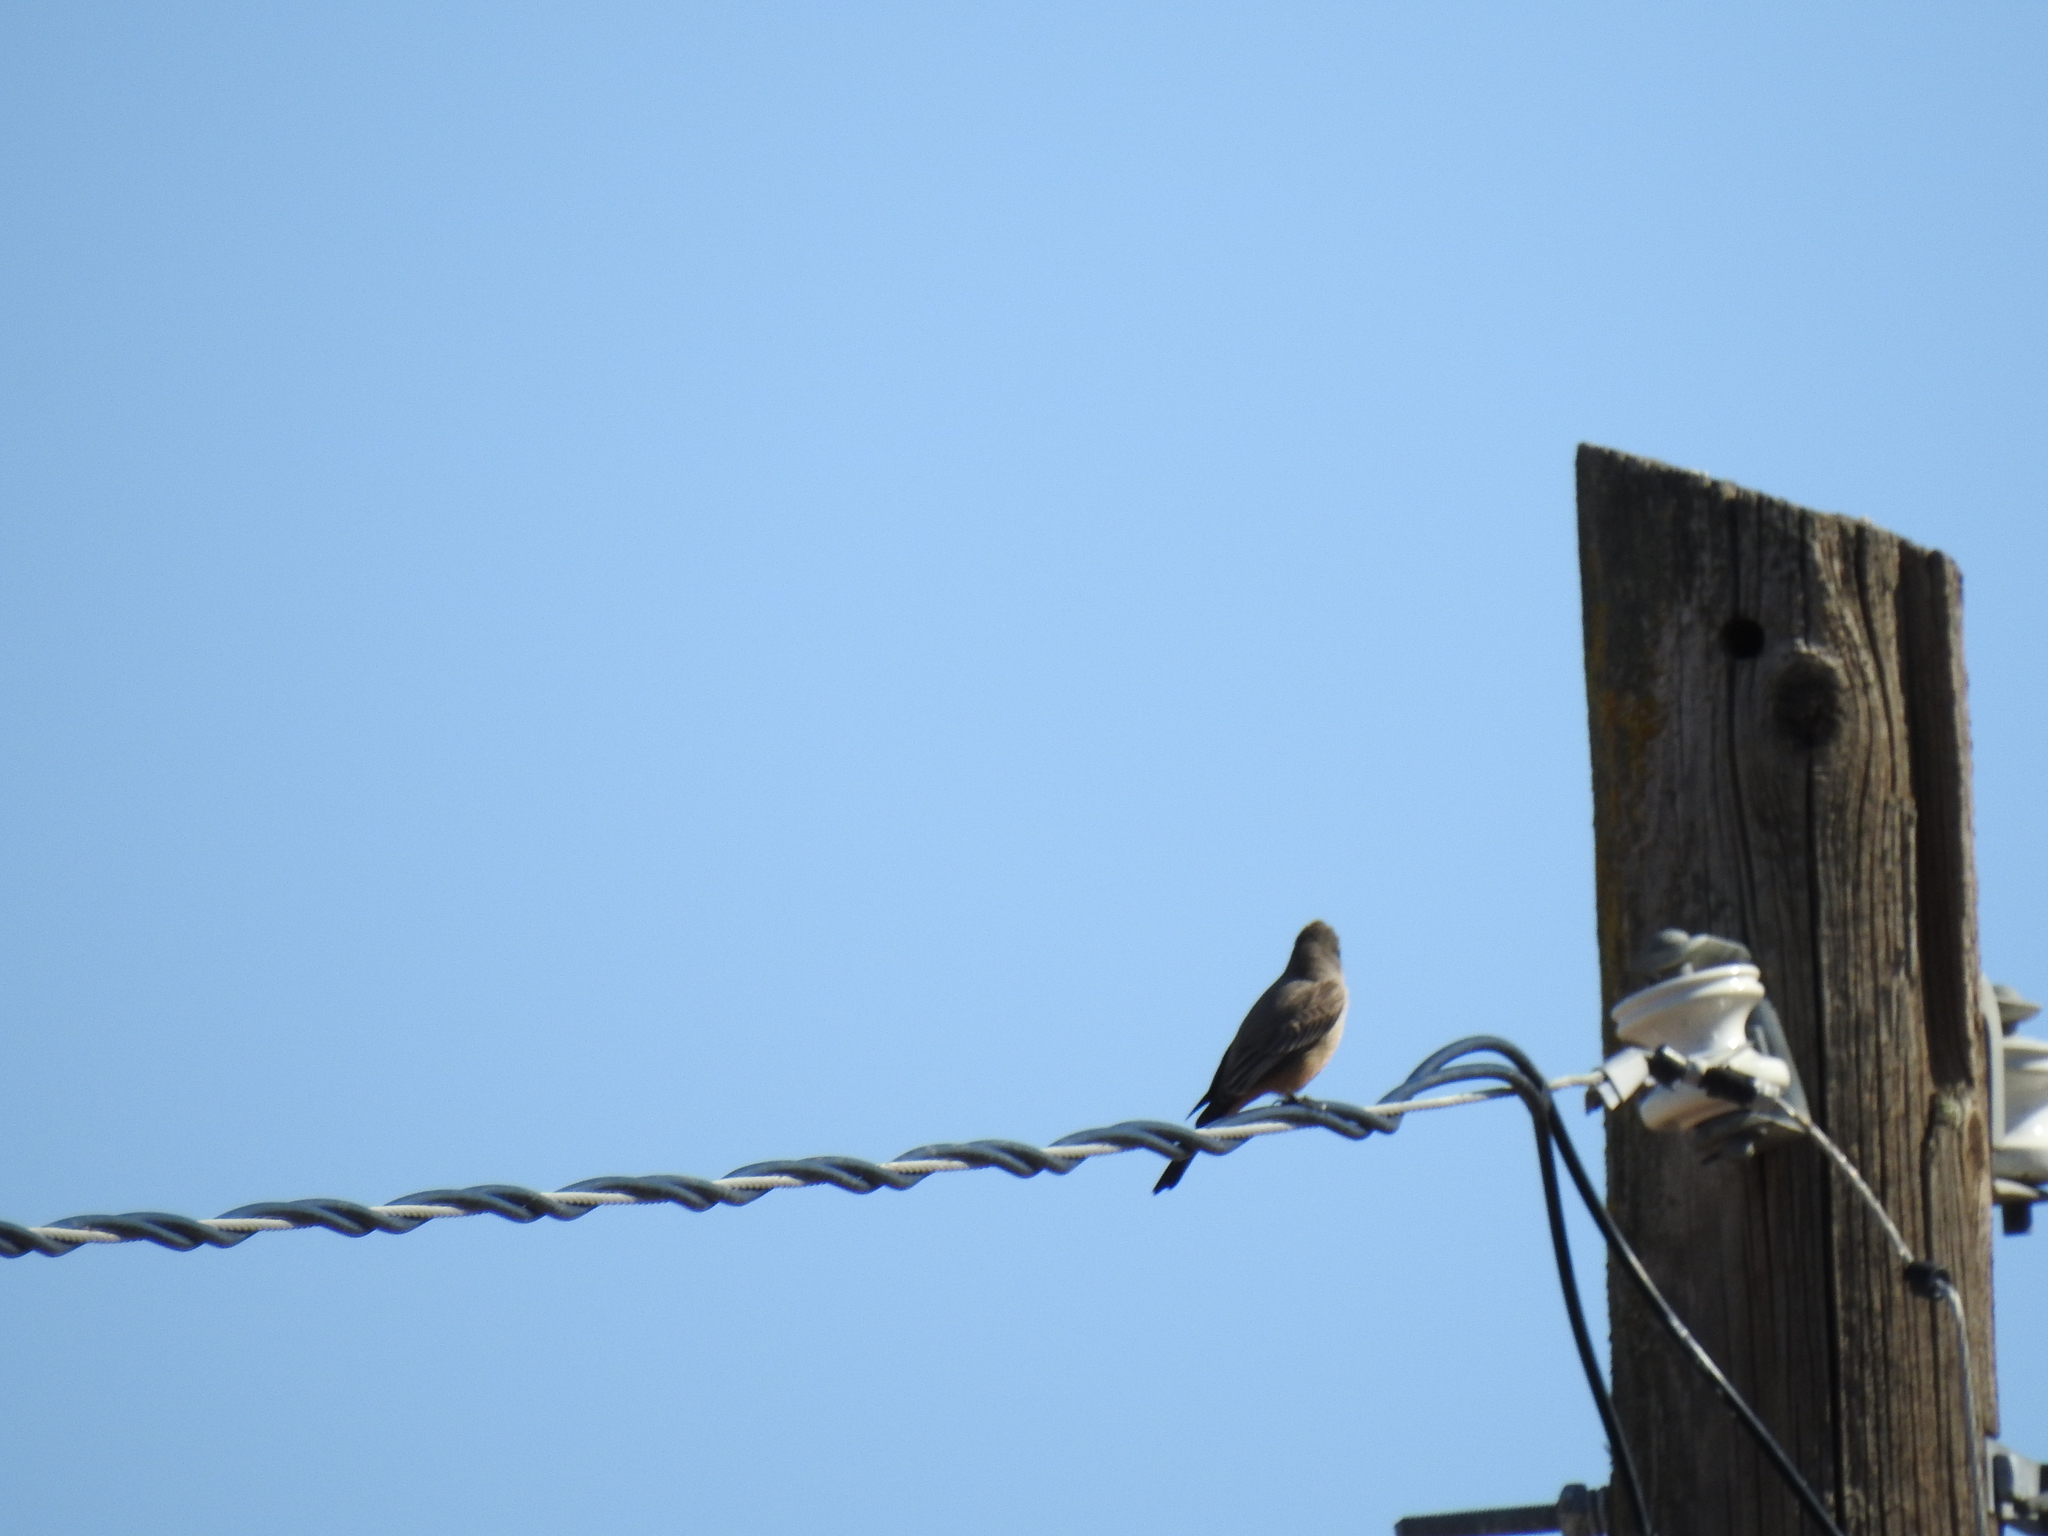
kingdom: Animalia
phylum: Chordata
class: Aves
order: Passeriformes
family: Tyrannidae
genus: Sayornis
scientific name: Sayornis saya
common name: Say's phoebe
